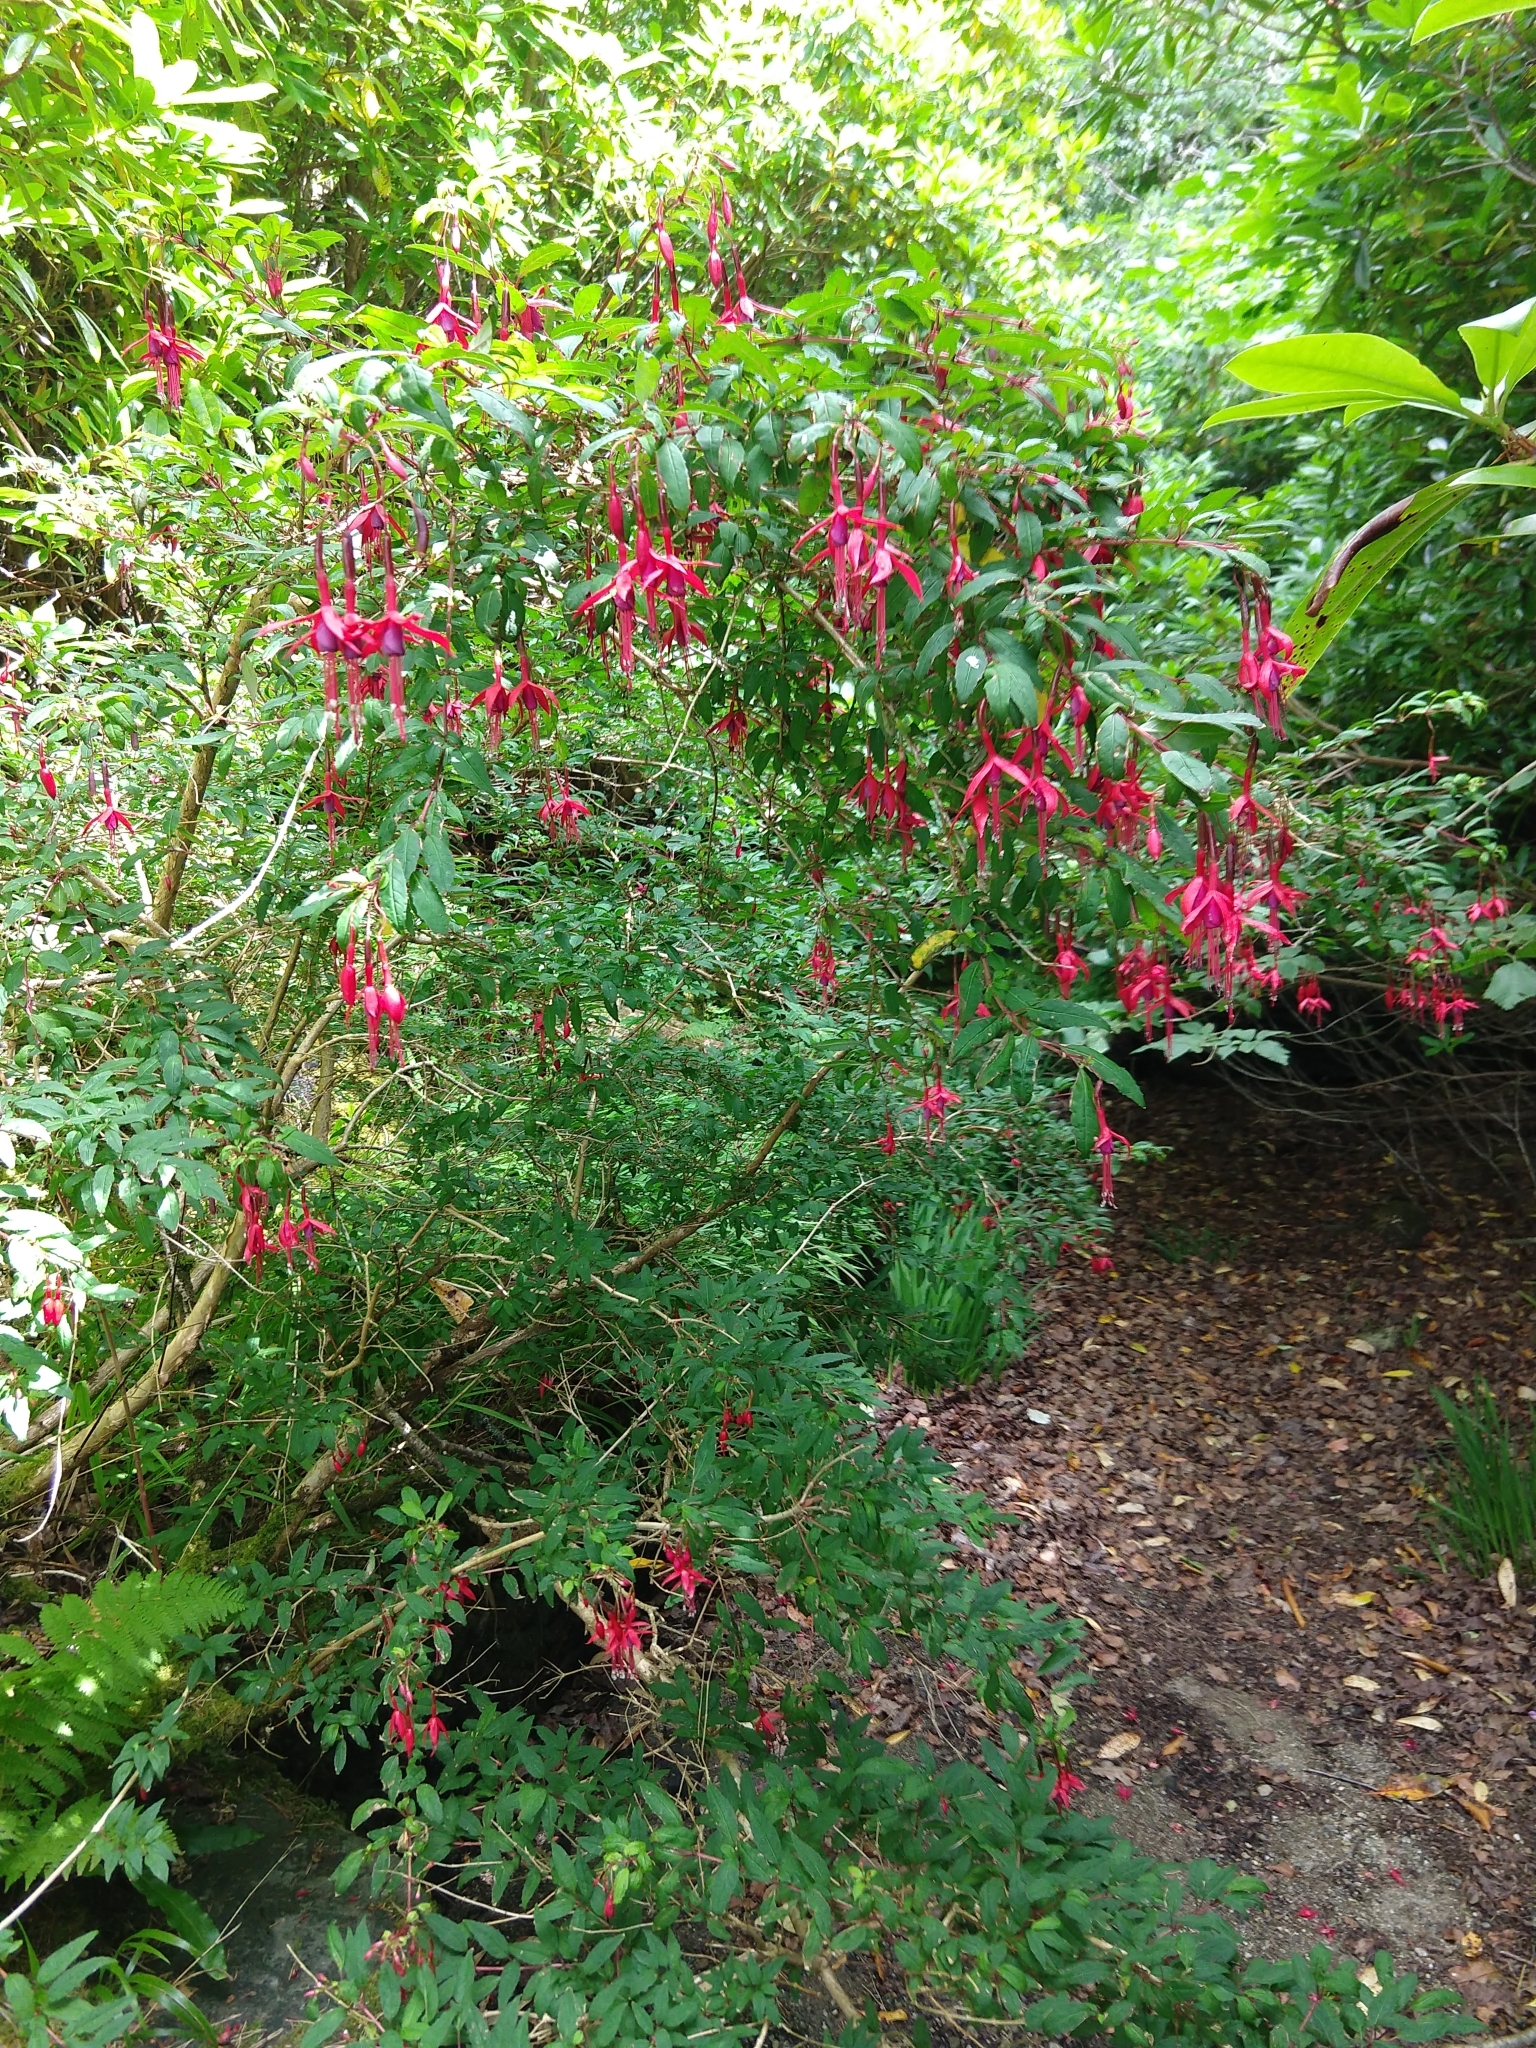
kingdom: Plantae
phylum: Tracheophyta
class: Magnoliopsida
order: Myrtales
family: Onagraceae
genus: Fuchsia
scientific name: Fuchsia magellanica
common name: Hardy fuchsia
